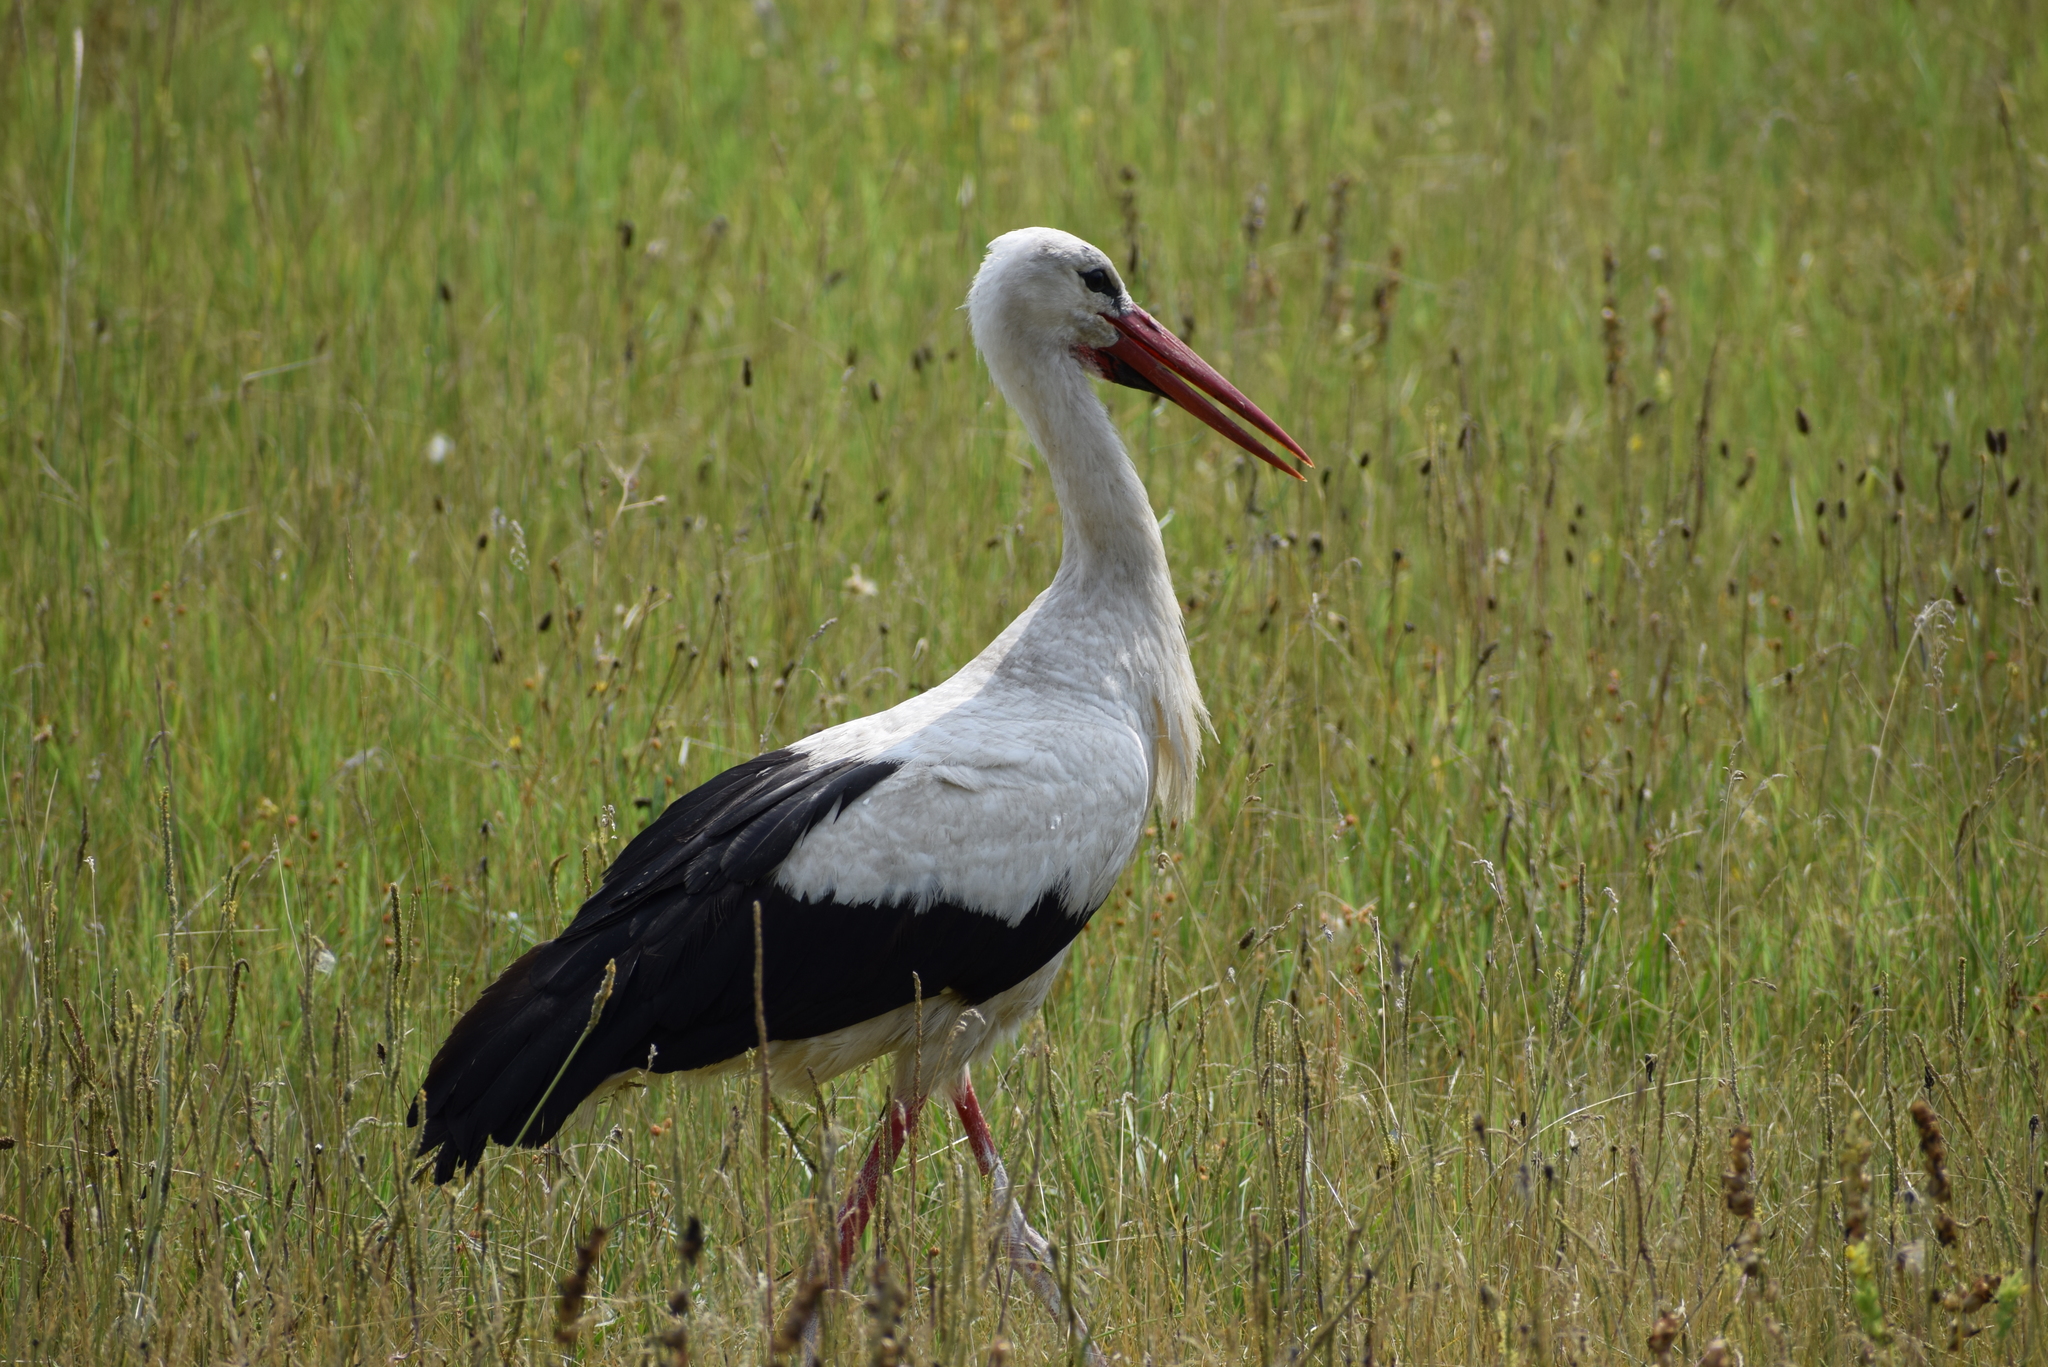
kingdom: Animalia
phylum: Chordata
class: Aves
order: Ciconiiformes
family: Ciconiidae
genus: Ciconia
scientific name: Ciconia ciconia
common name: White stork
